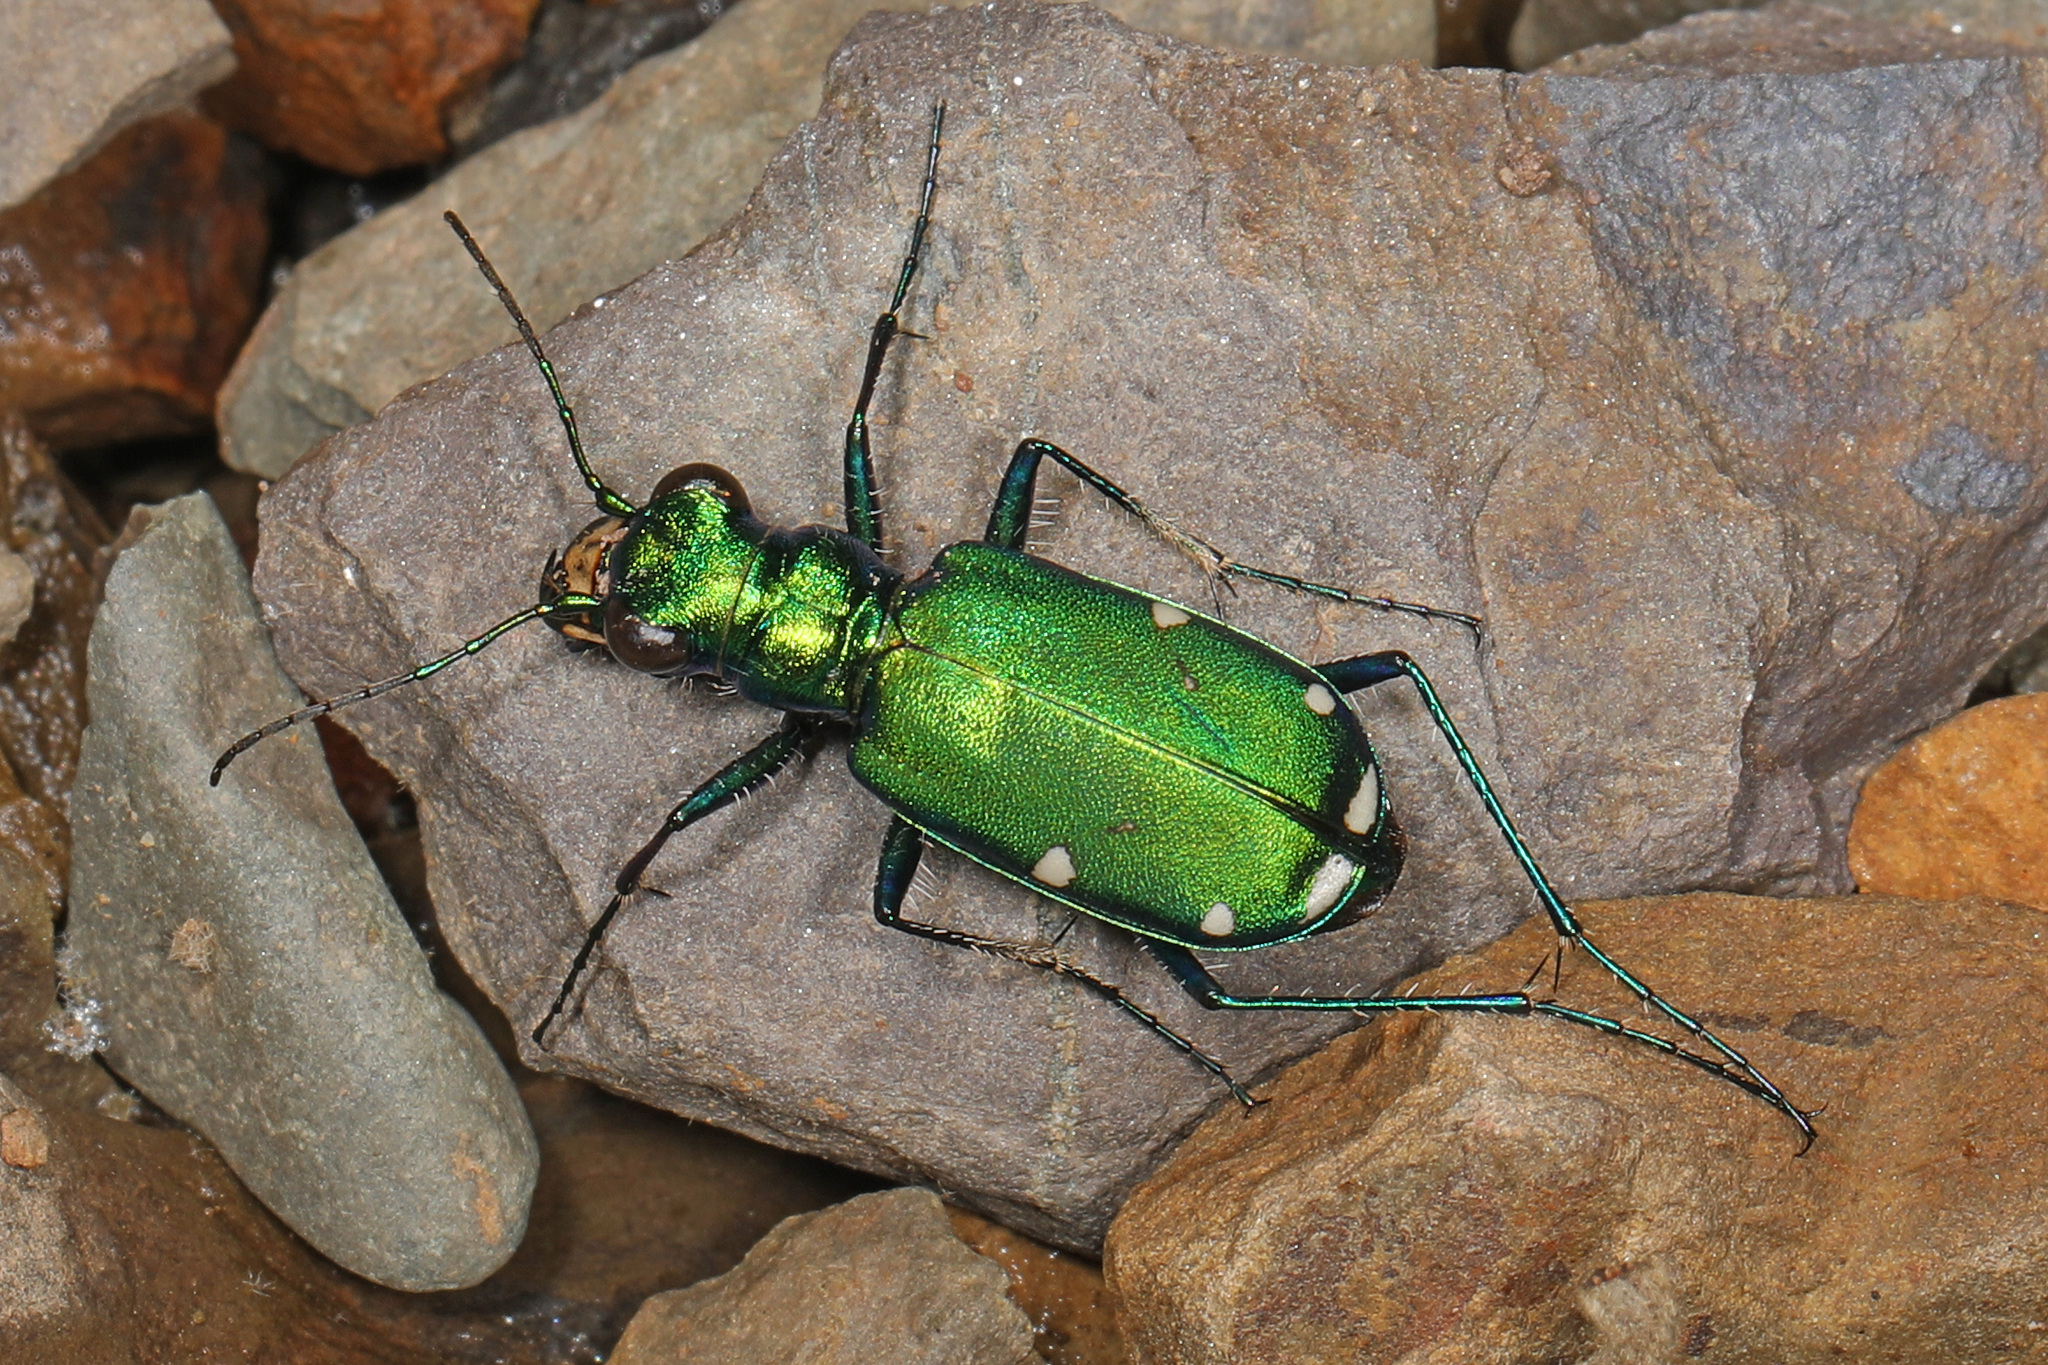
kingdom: Animalia
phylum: Arthropoda
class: Insecta
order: Coleoptera
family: Carabidae
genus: Cicindela
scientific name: Cicindela sexguttata
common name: Six-spotted tiger beetle
